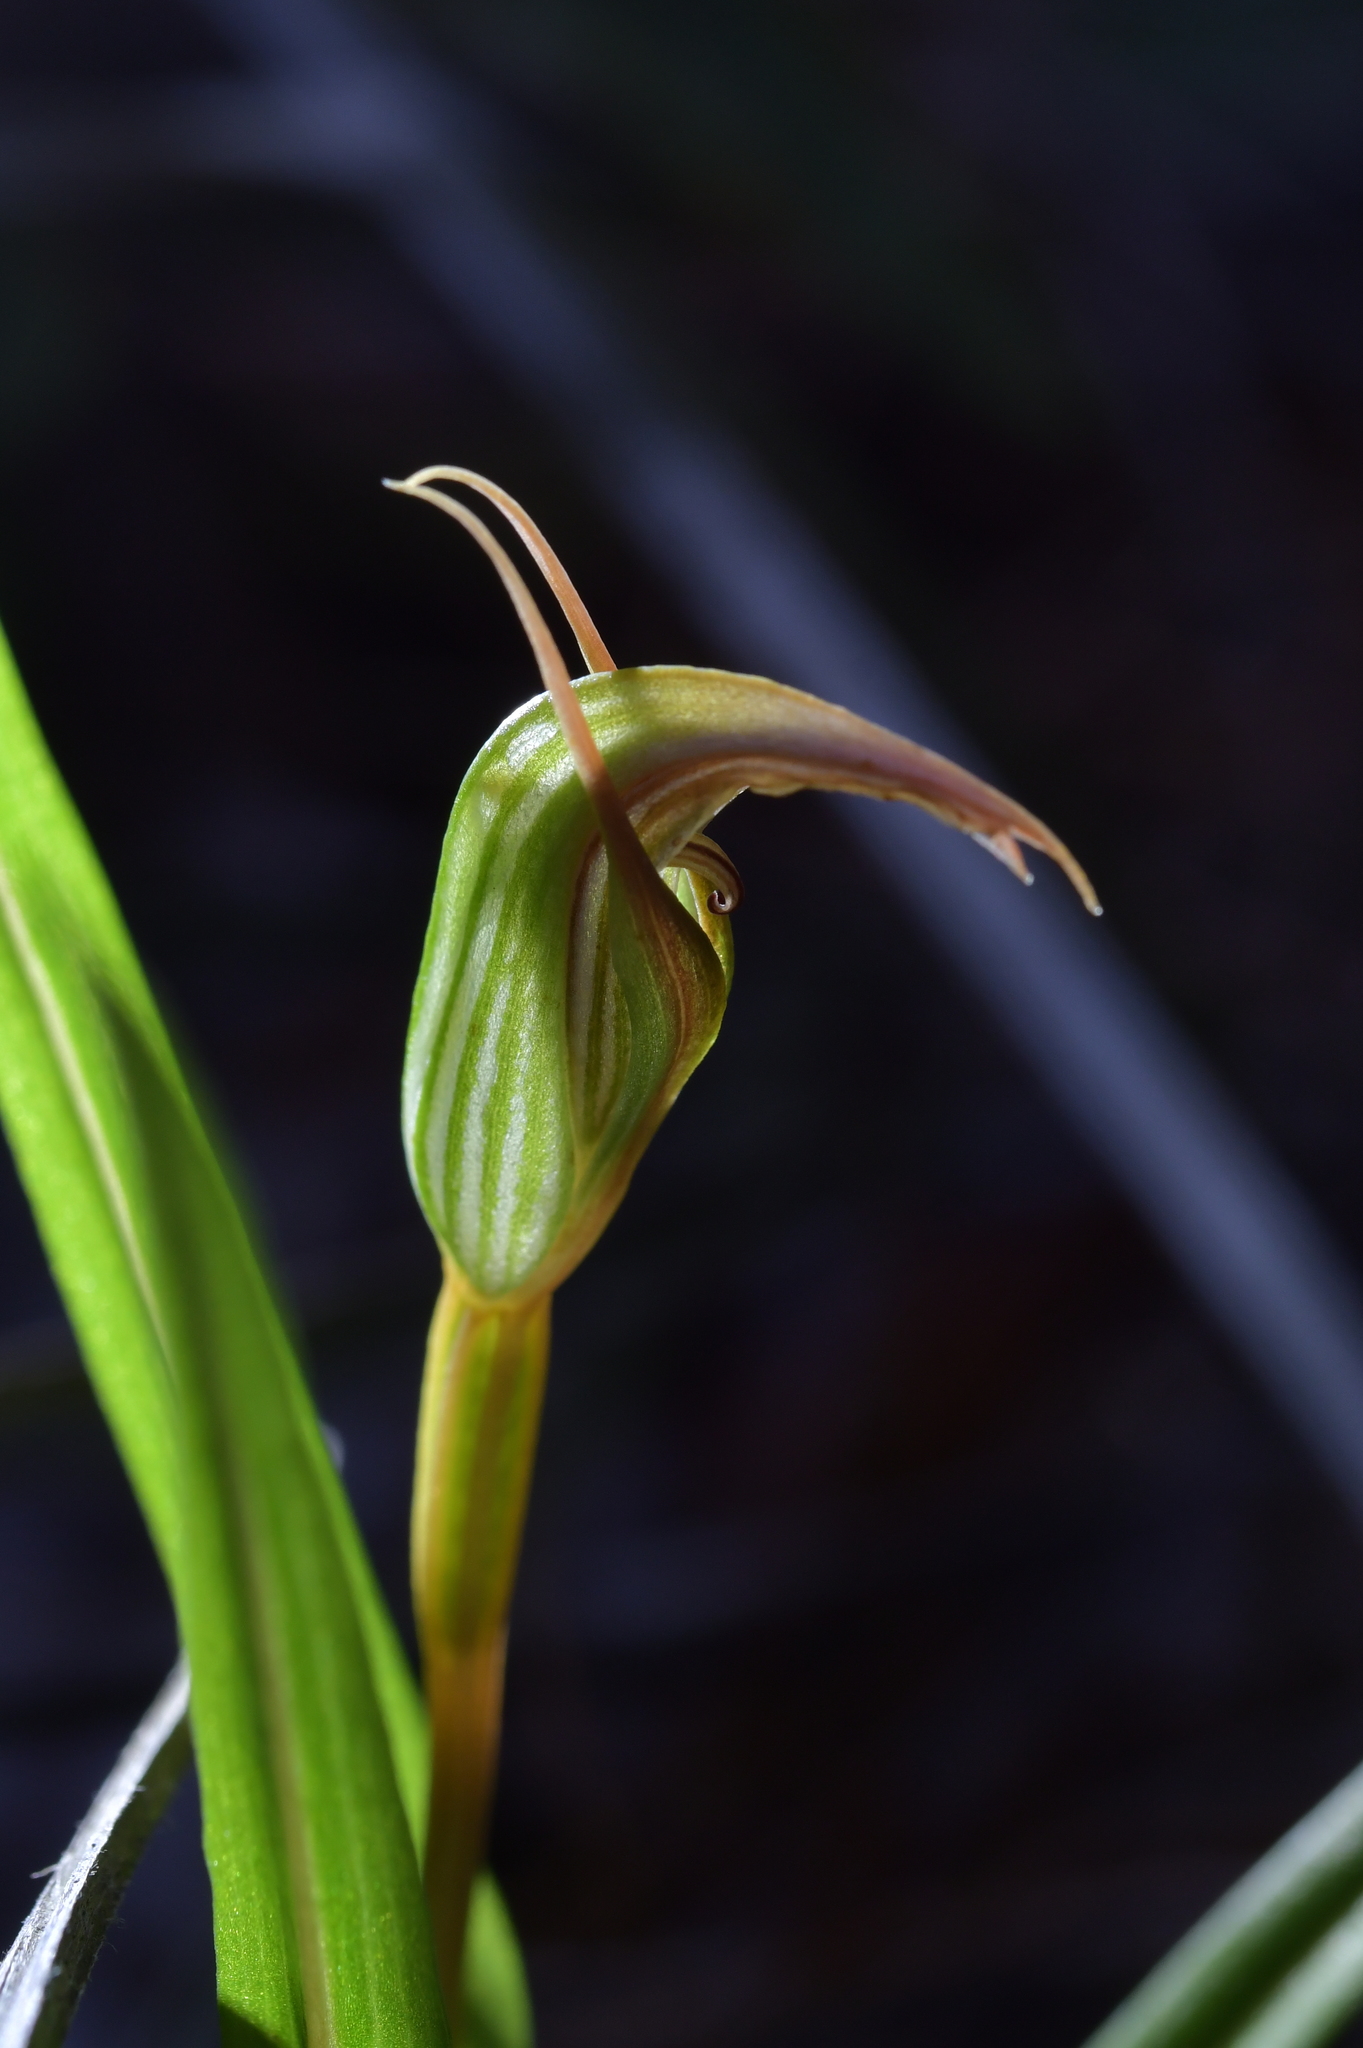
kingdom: Plantae
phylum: Tracheophyta
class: Liliopsida
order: Asparagales
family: Orchidaceae
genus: Pterostylis
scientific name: Pterostylis irsoniana
